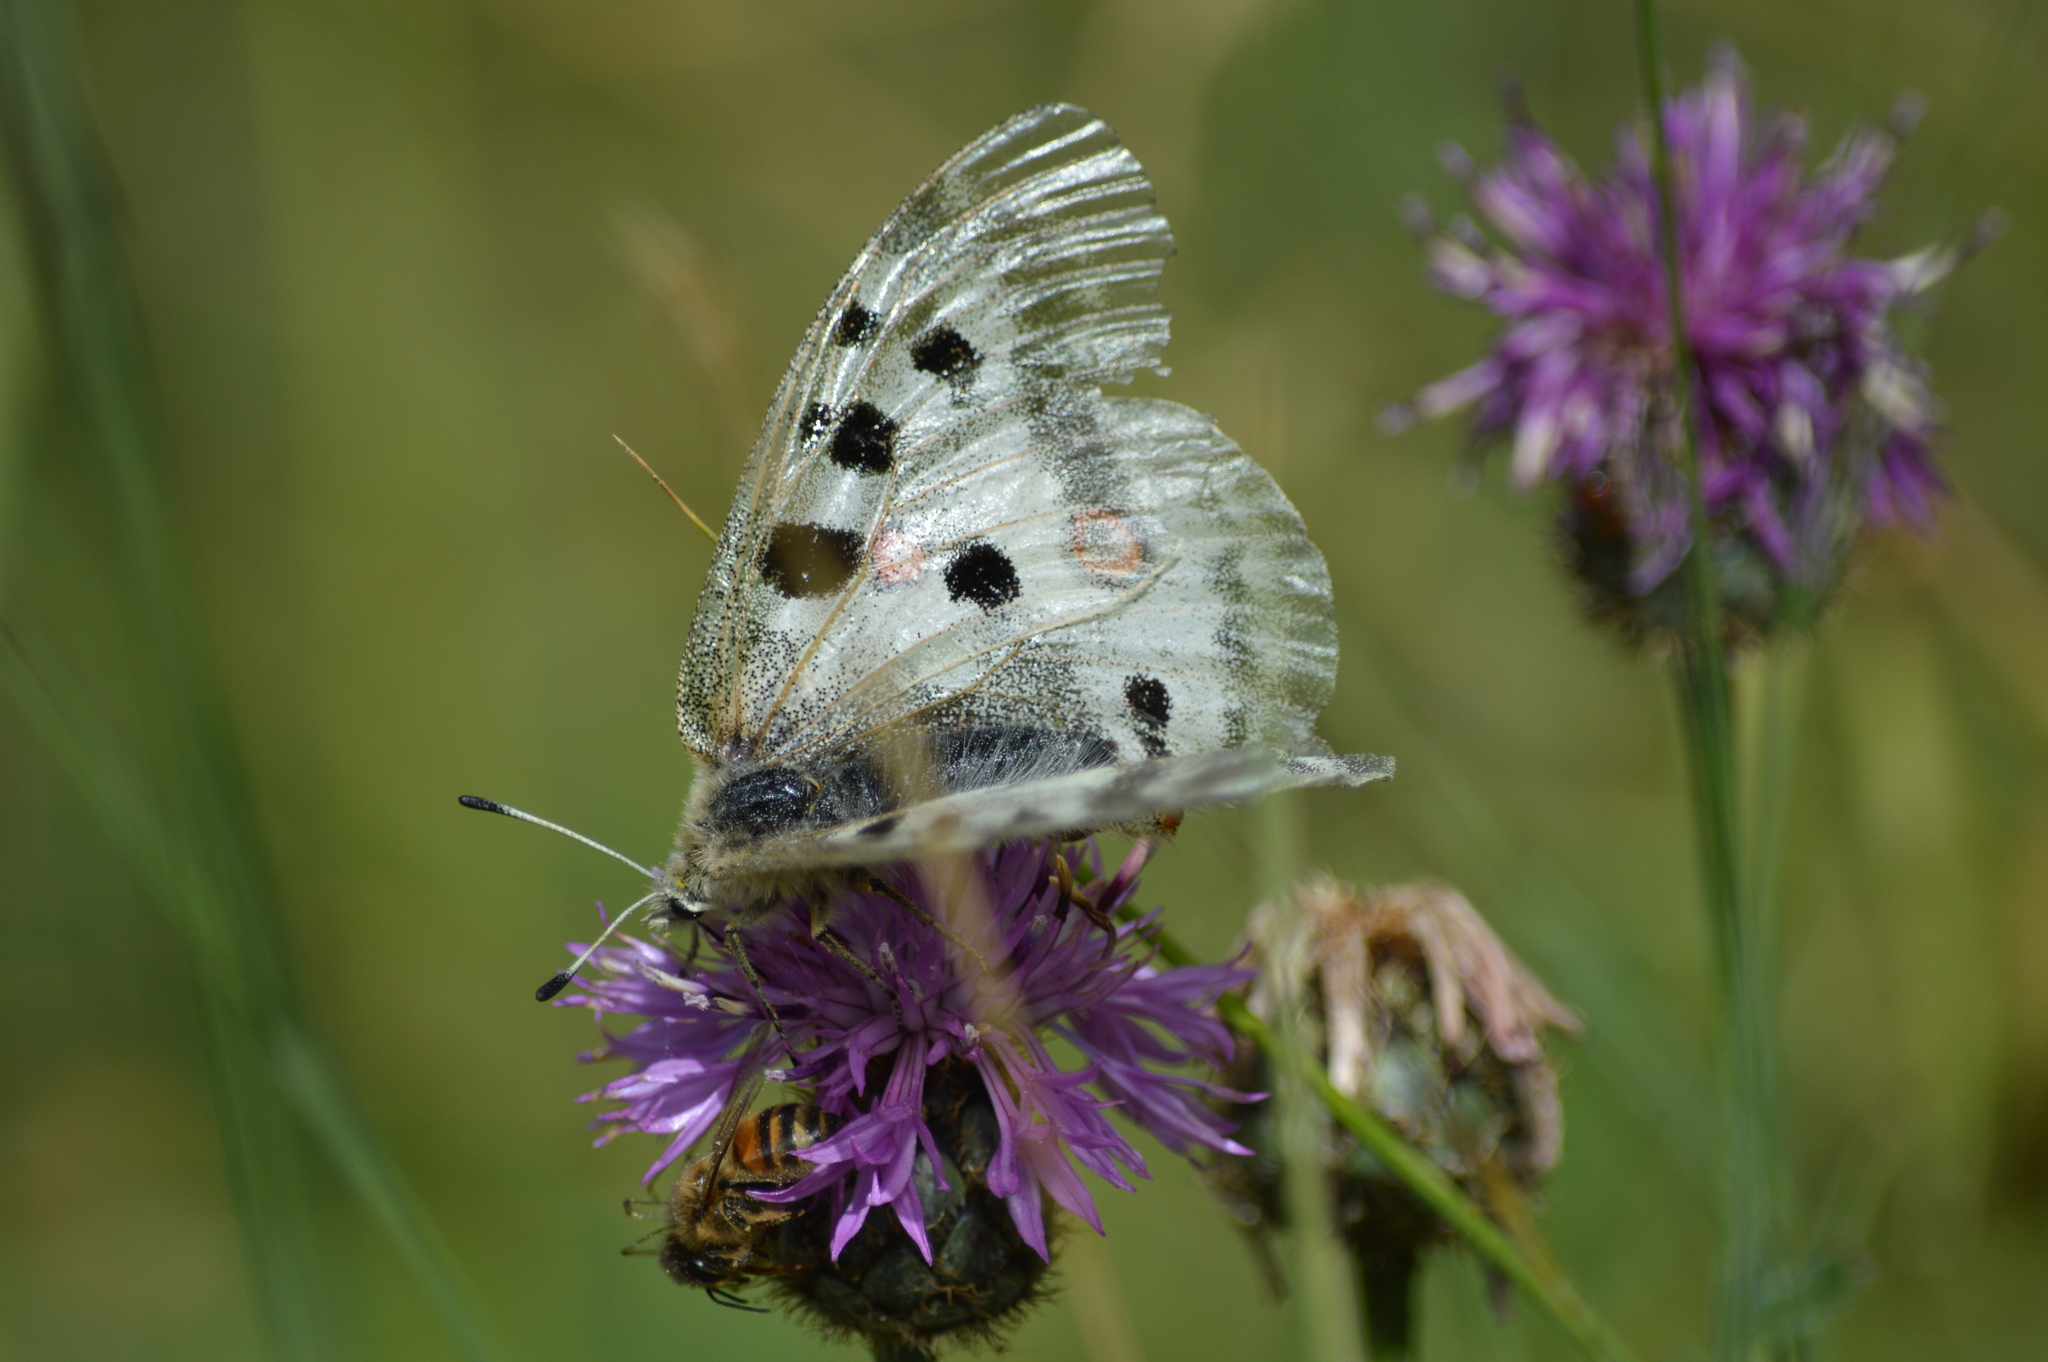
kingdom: Animalia
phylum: Arthropoda
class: Insecta
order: Lepidoptera
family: Papilionidae
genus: Parnassius
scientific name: Parnassius apollo
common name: Apollo
